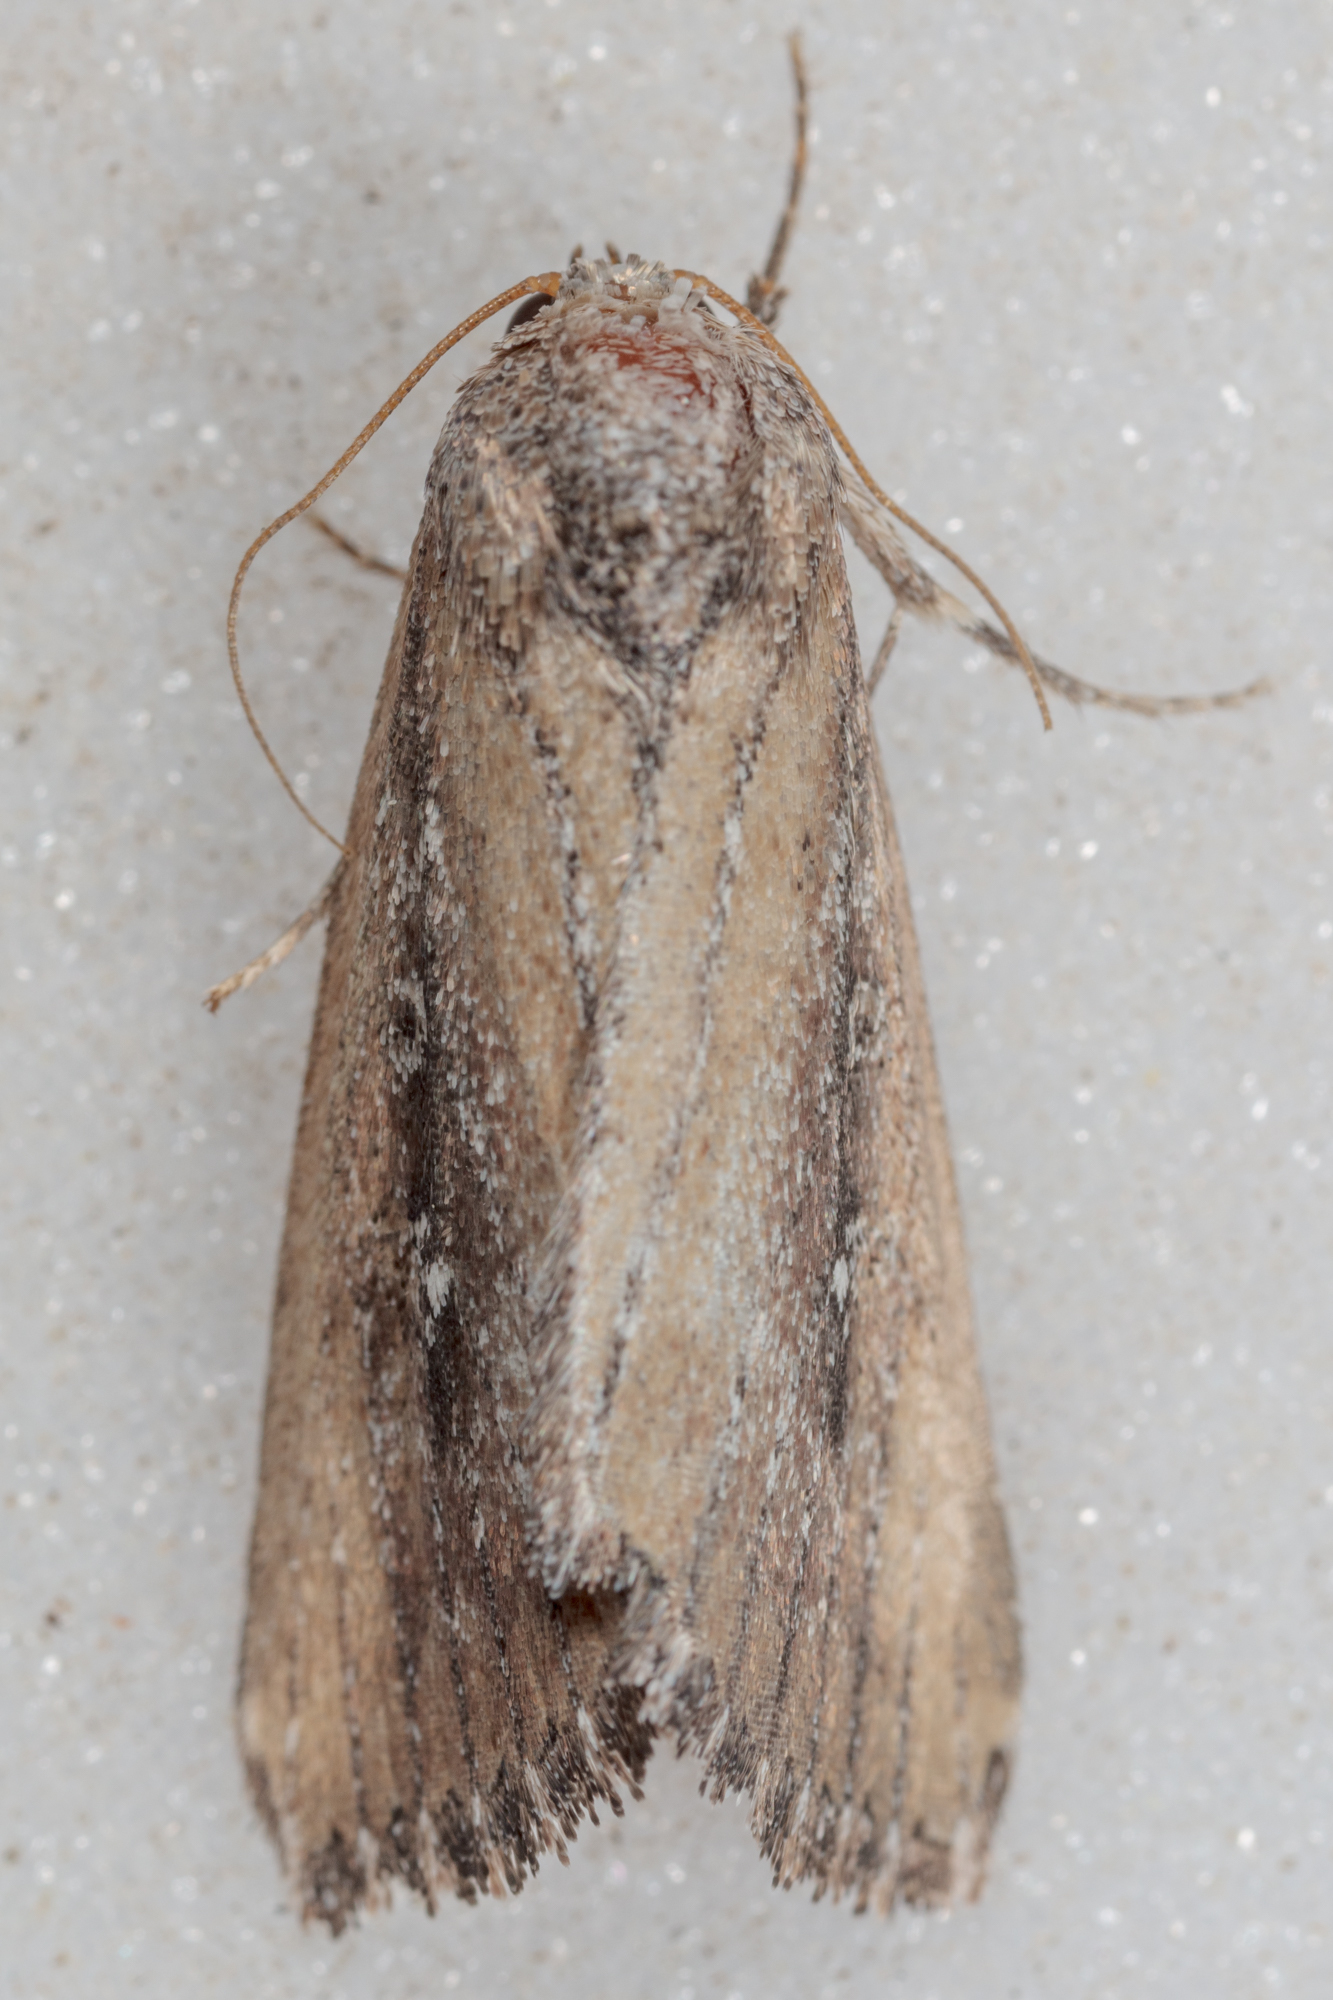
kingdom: Animalia
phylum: Arthropoda
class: Insecta
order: Lepidoptera
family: Noctuidae
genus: Condica
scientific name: Condica videns
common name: White-dotted groundling
